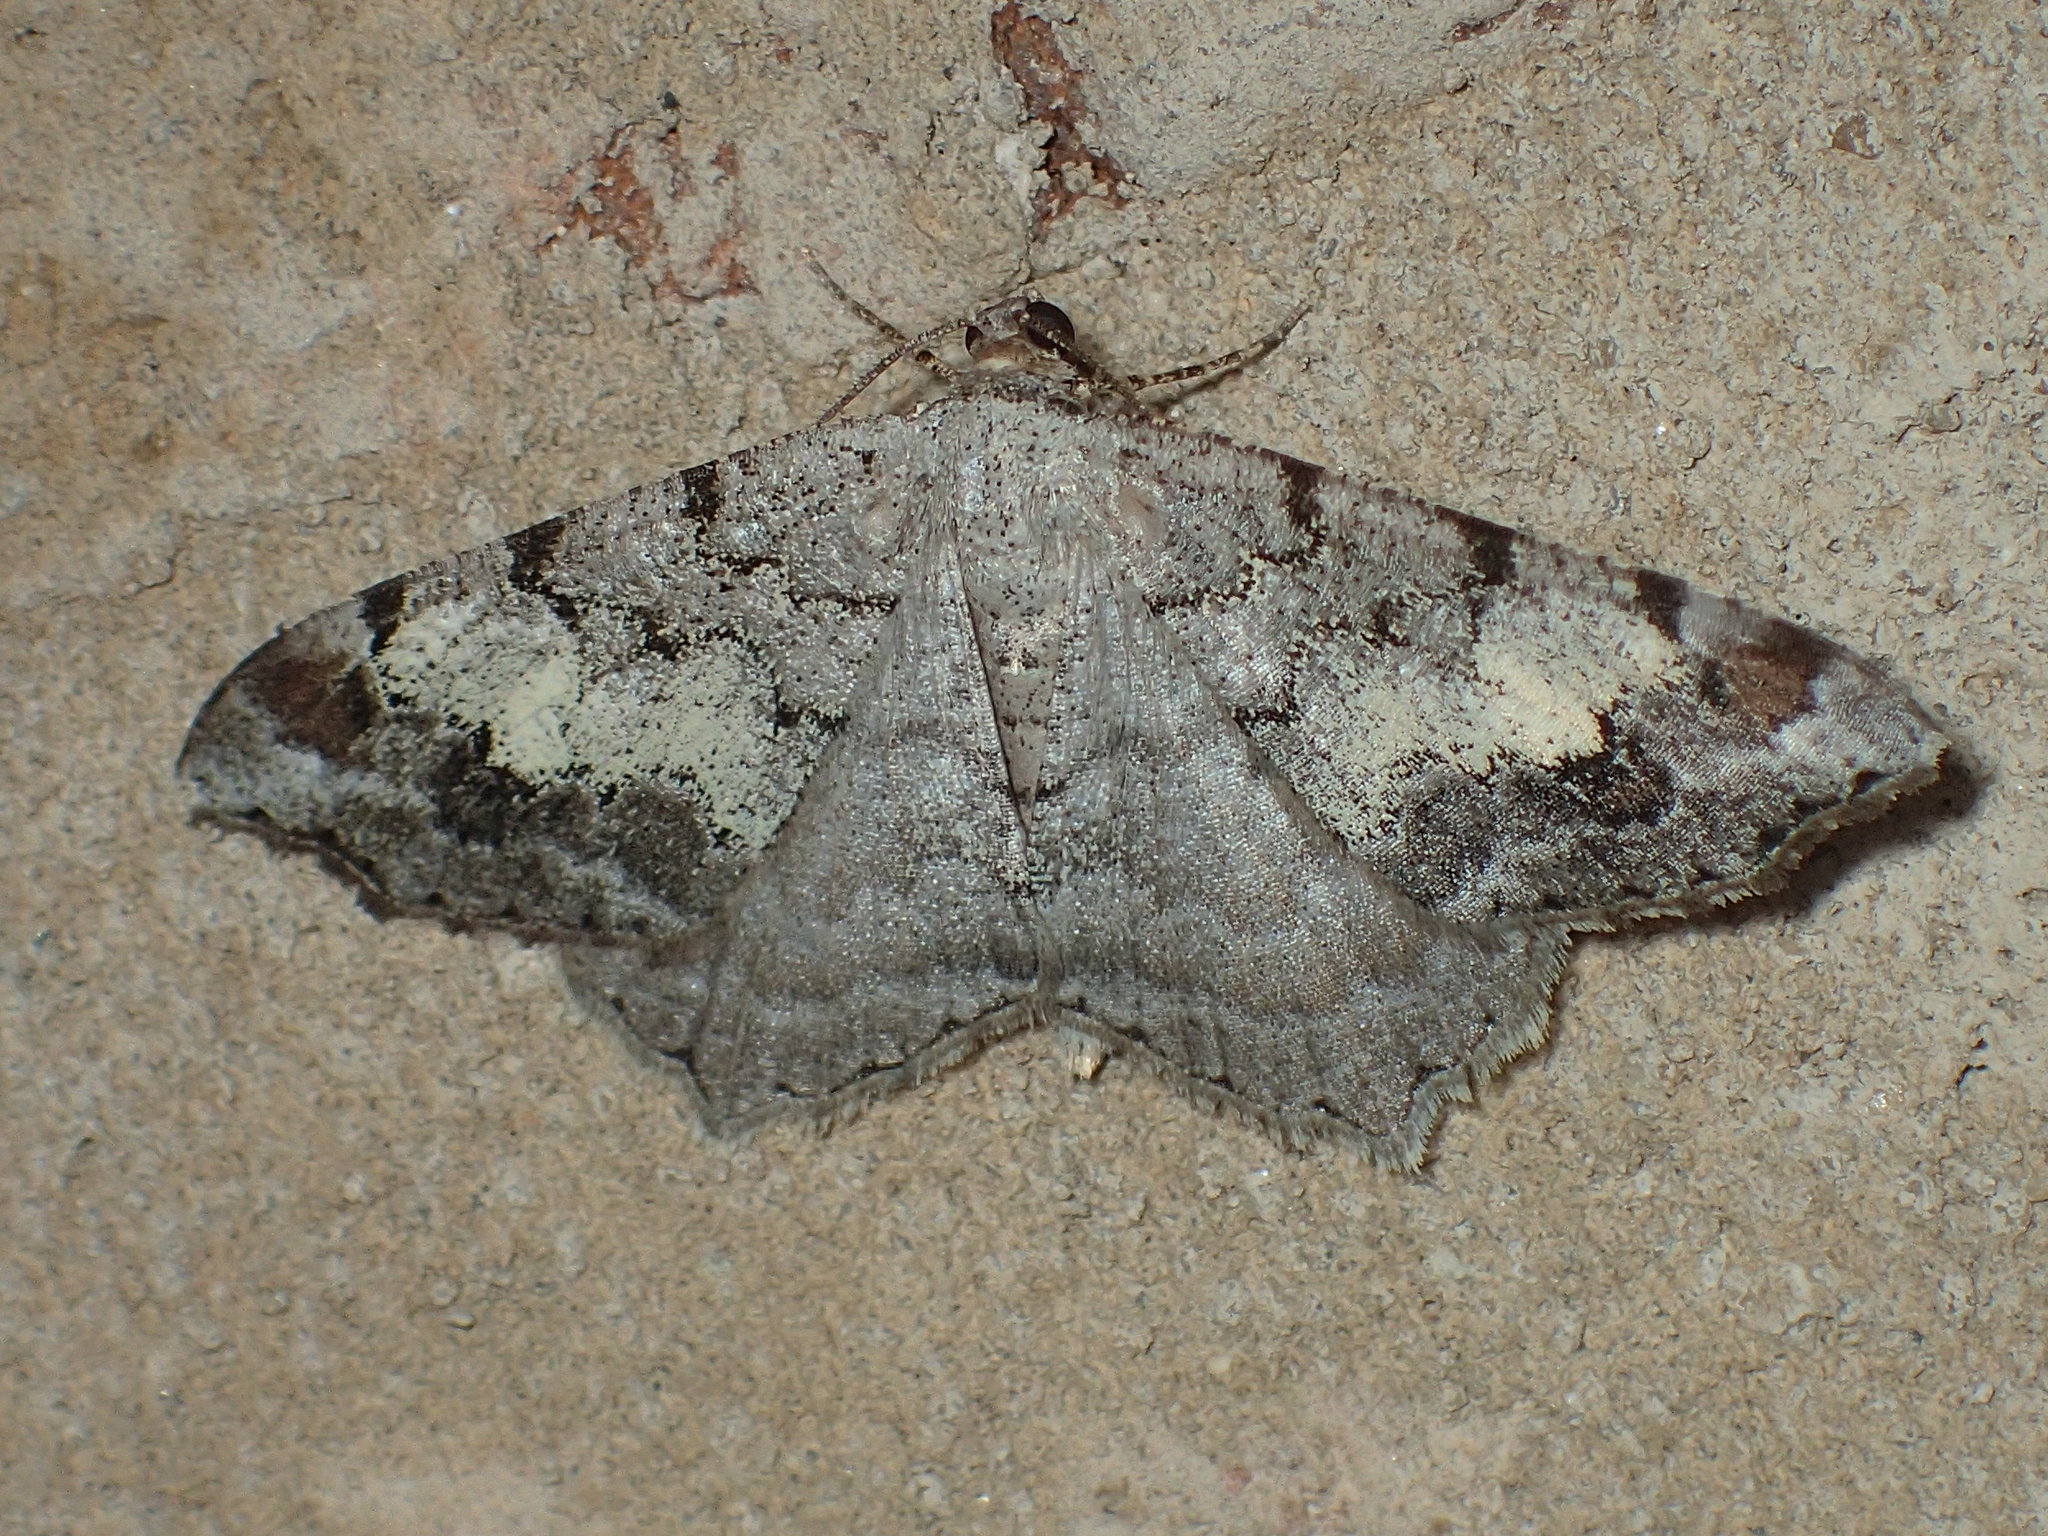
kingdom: Animalia
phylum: Arthropoda
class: Insecta
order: Lepidoptera
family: Geometridae
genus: Macaria
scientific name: Macaria granitata
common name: Granite moth
